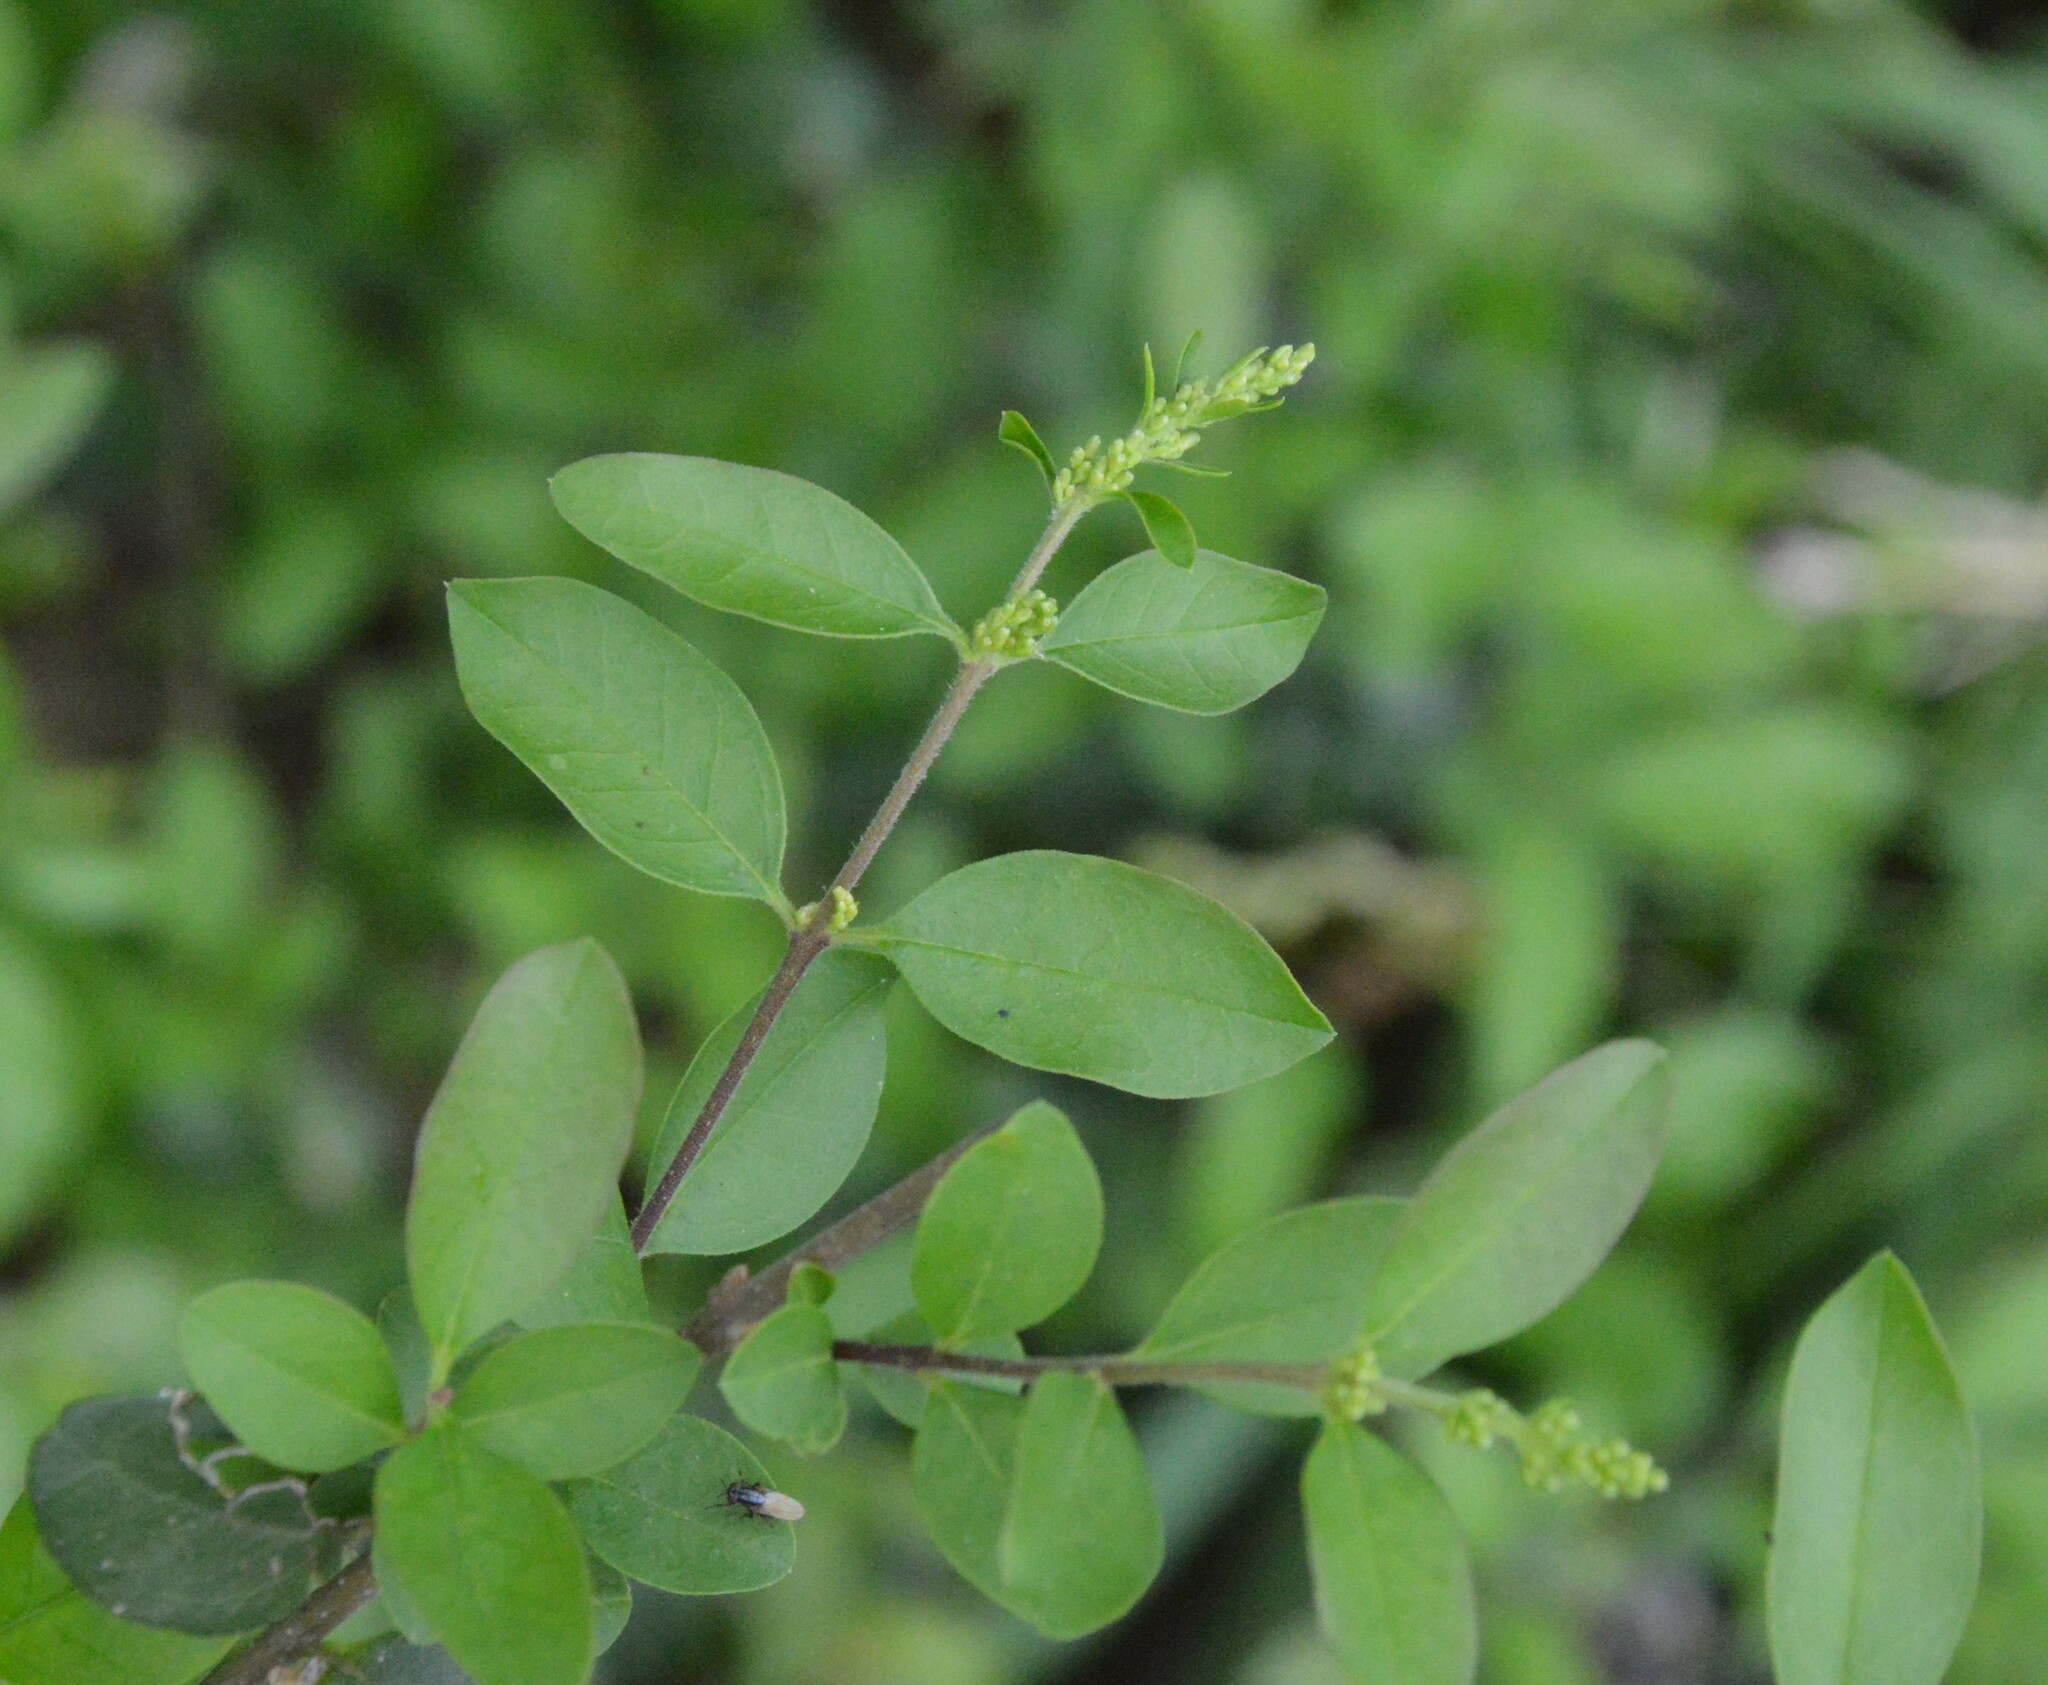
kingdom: Plantae
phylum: Tracheophyta
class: Magnoliopsida
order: Lamiales
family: Oleaceae
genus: Ligustrum
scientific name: Ligustrum sinense
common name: Chinese privet
